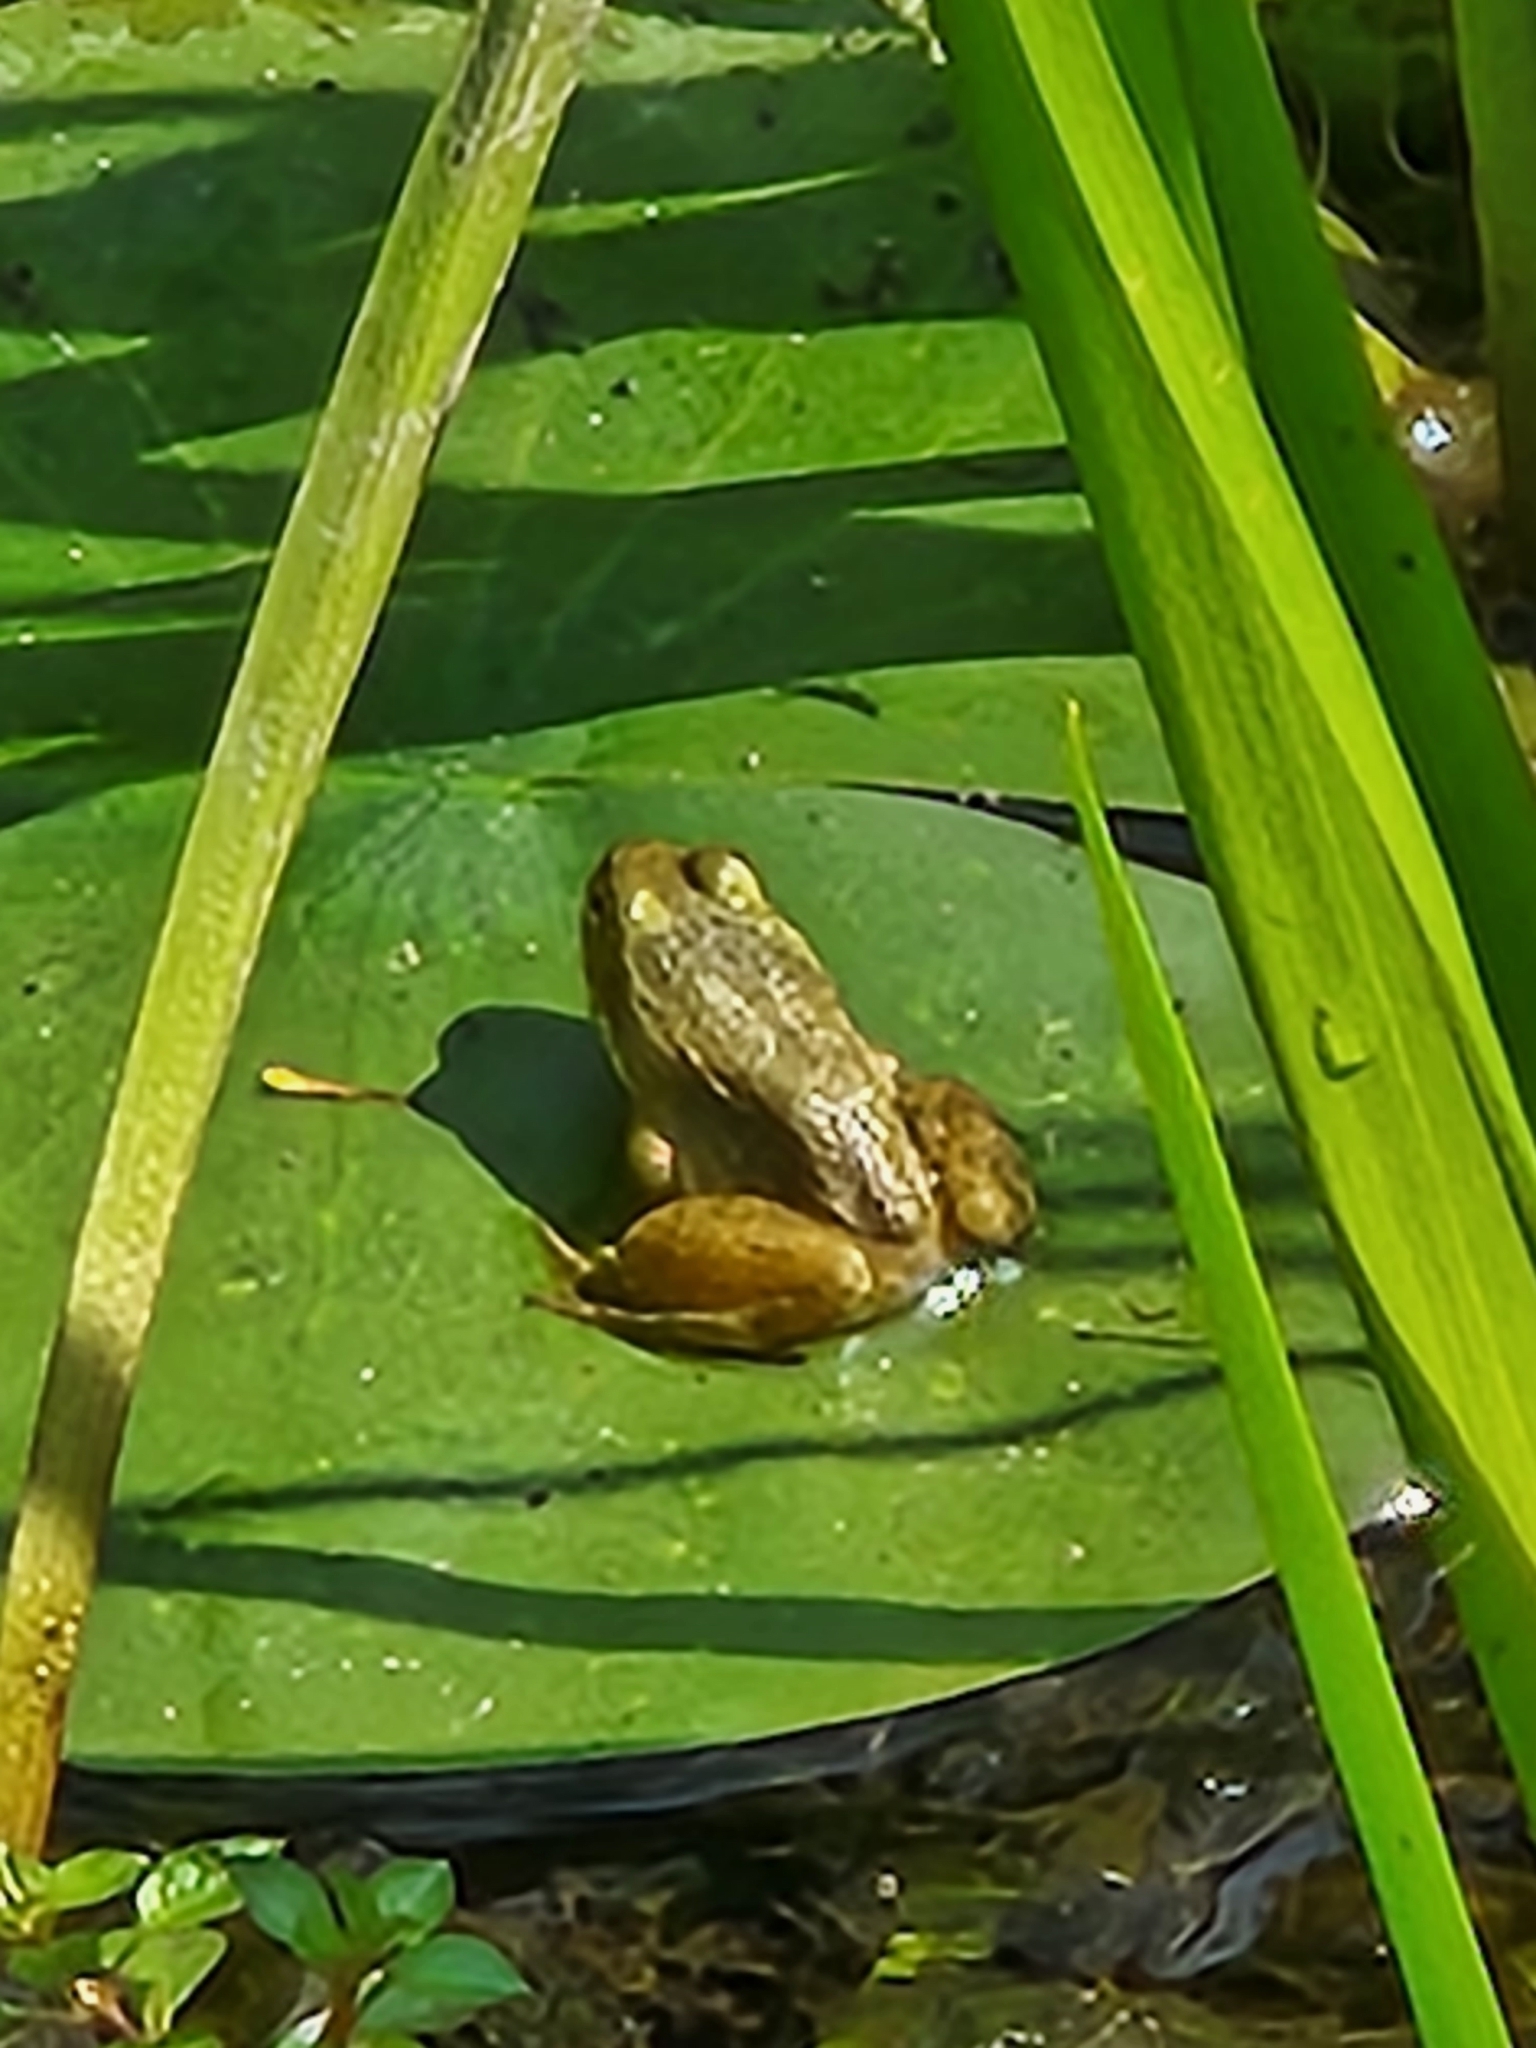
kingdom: Animalia
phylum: Chordata
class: Amphibia
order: Anura
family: Ranidae
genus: Lithobates
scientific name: Lithobates clamitans
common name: Green frog
